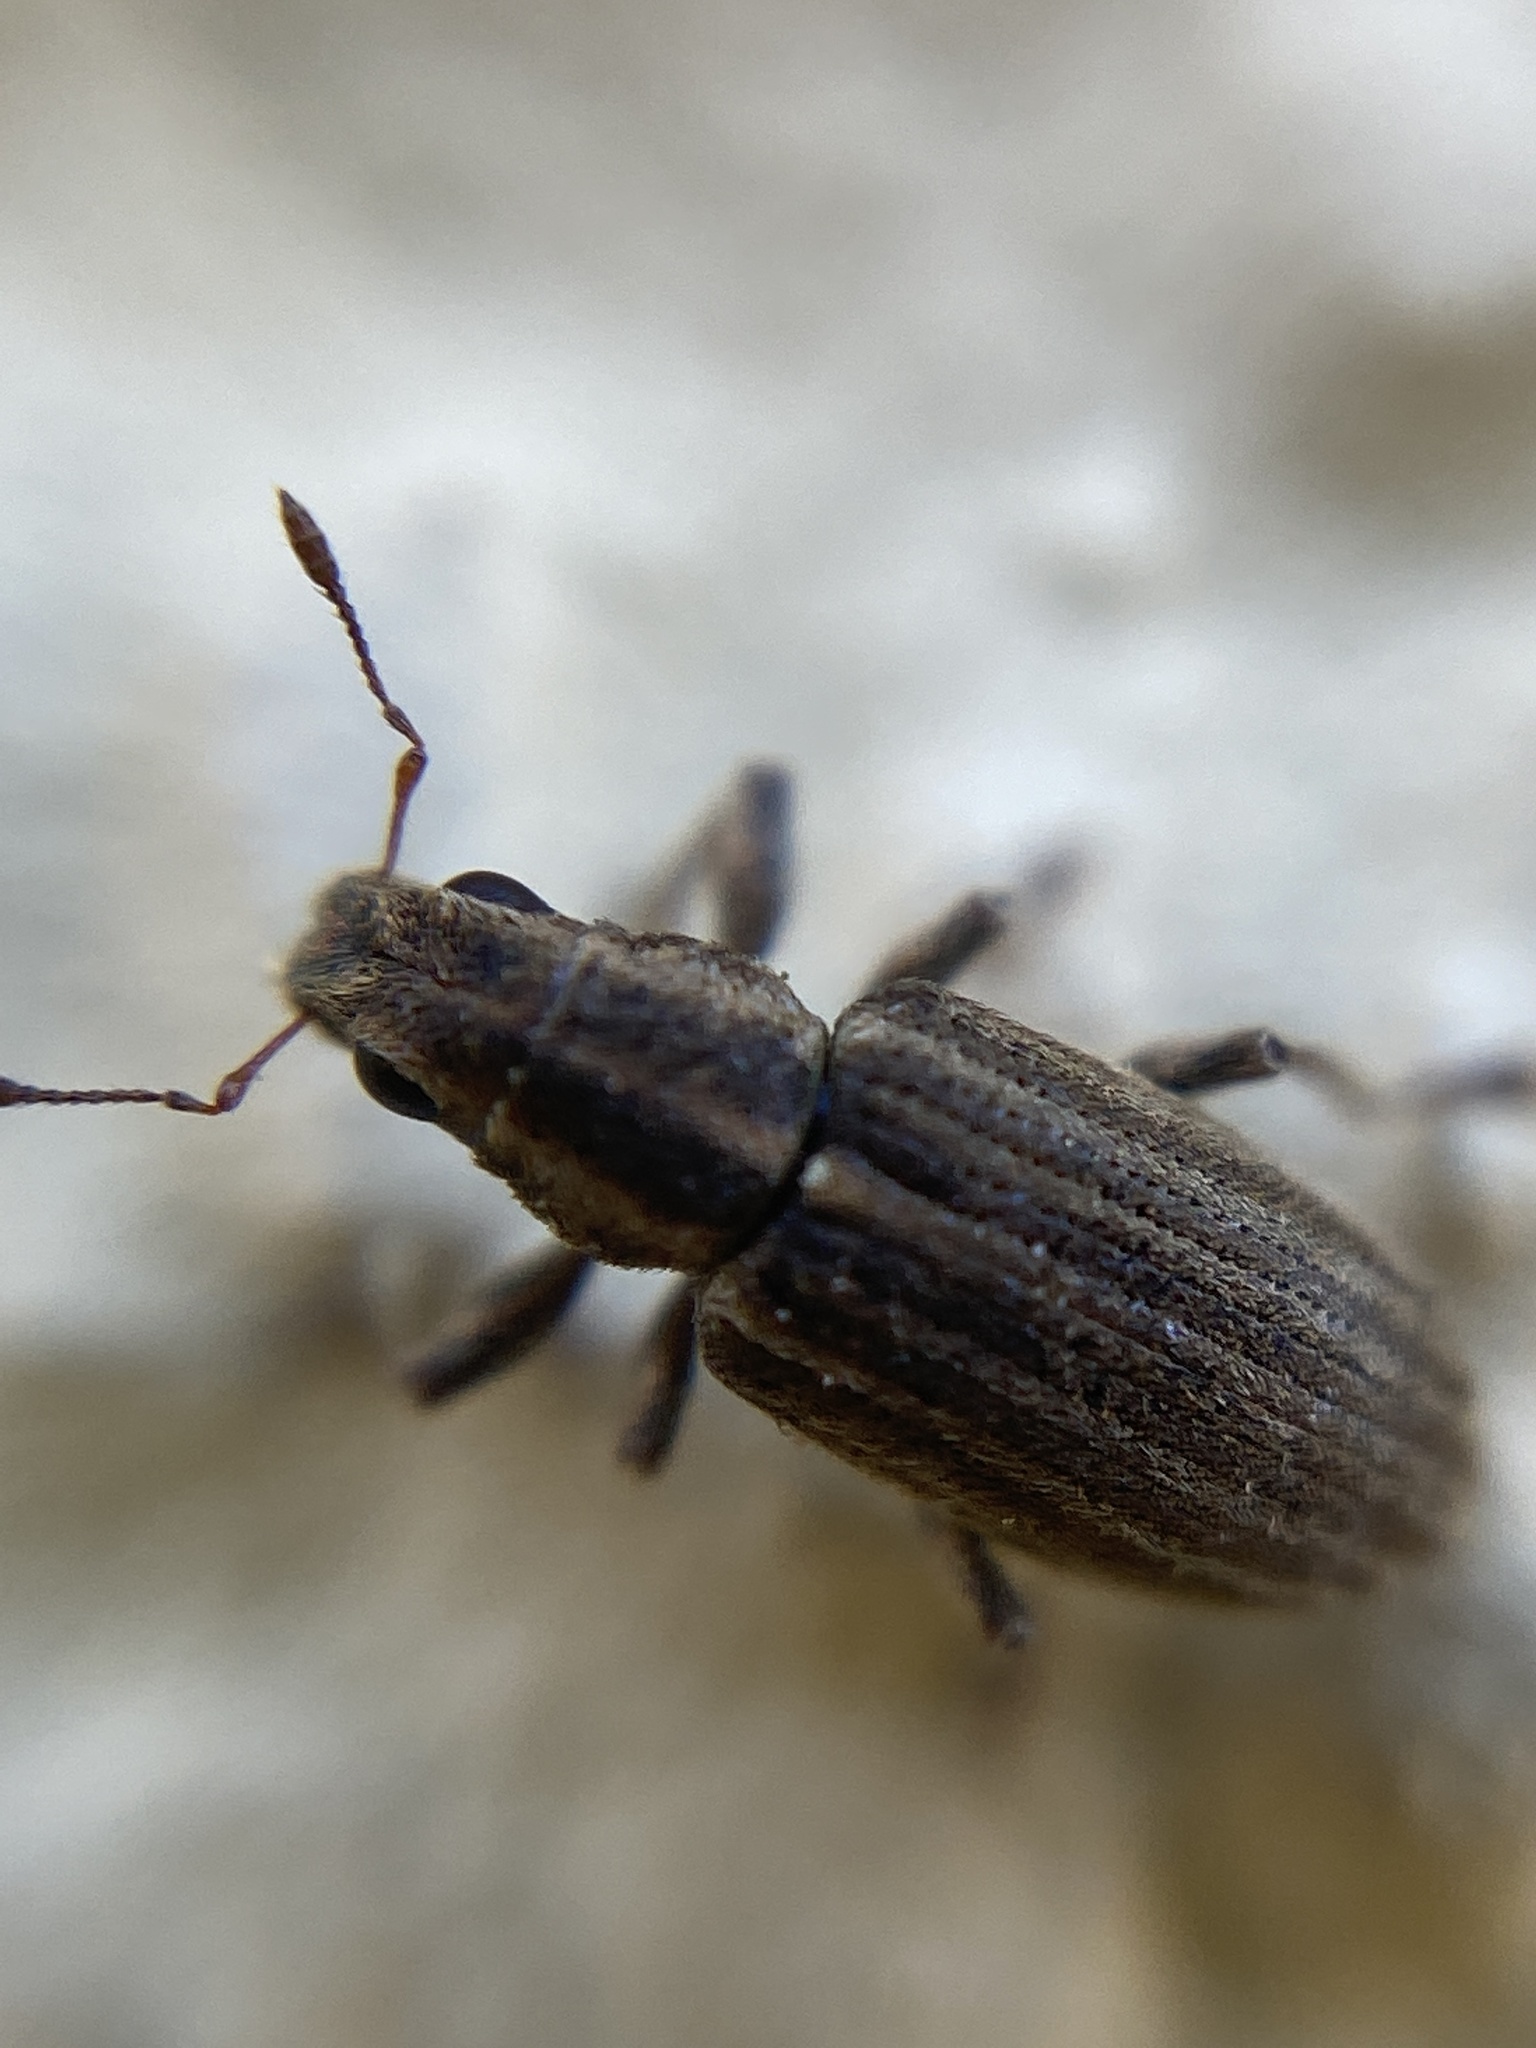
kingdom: Animalia
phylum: Arthropoda
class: Insecta
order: Coleoptera
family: Curculionidae
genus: Sitona
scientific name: Sitona lineatus
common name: Weevil
